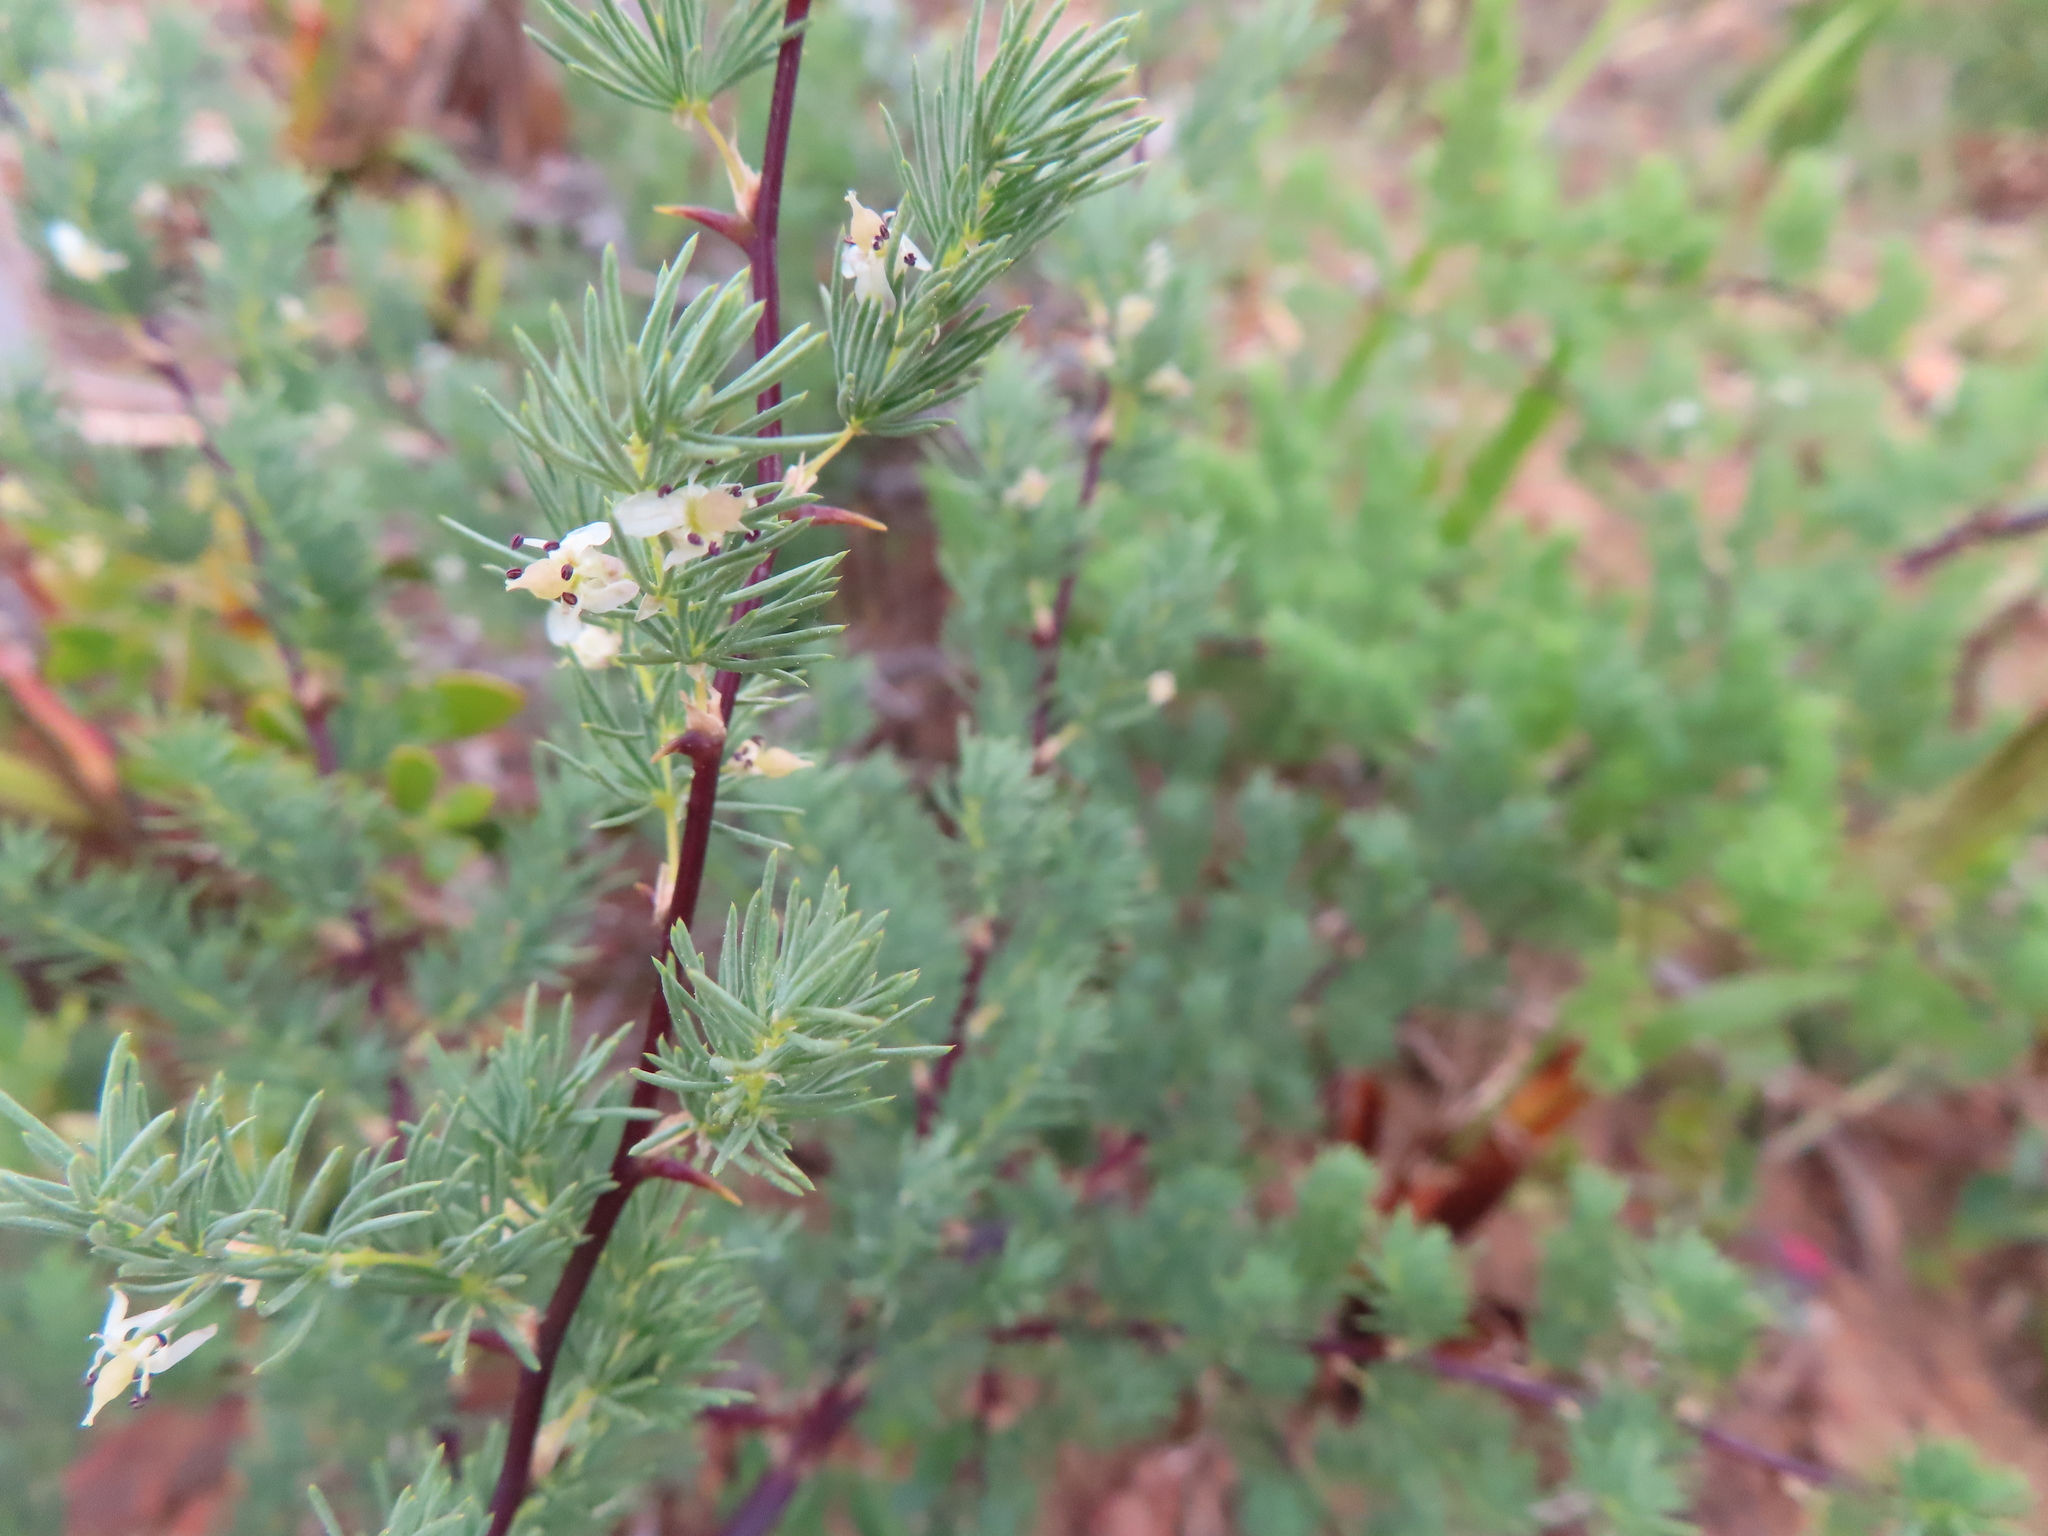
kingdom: Plantae
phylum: Tracheophyta
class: Liliopsida
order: Asparagales
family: Asparagaceae
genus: Asparagus
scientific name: Asparagus rubicundus
